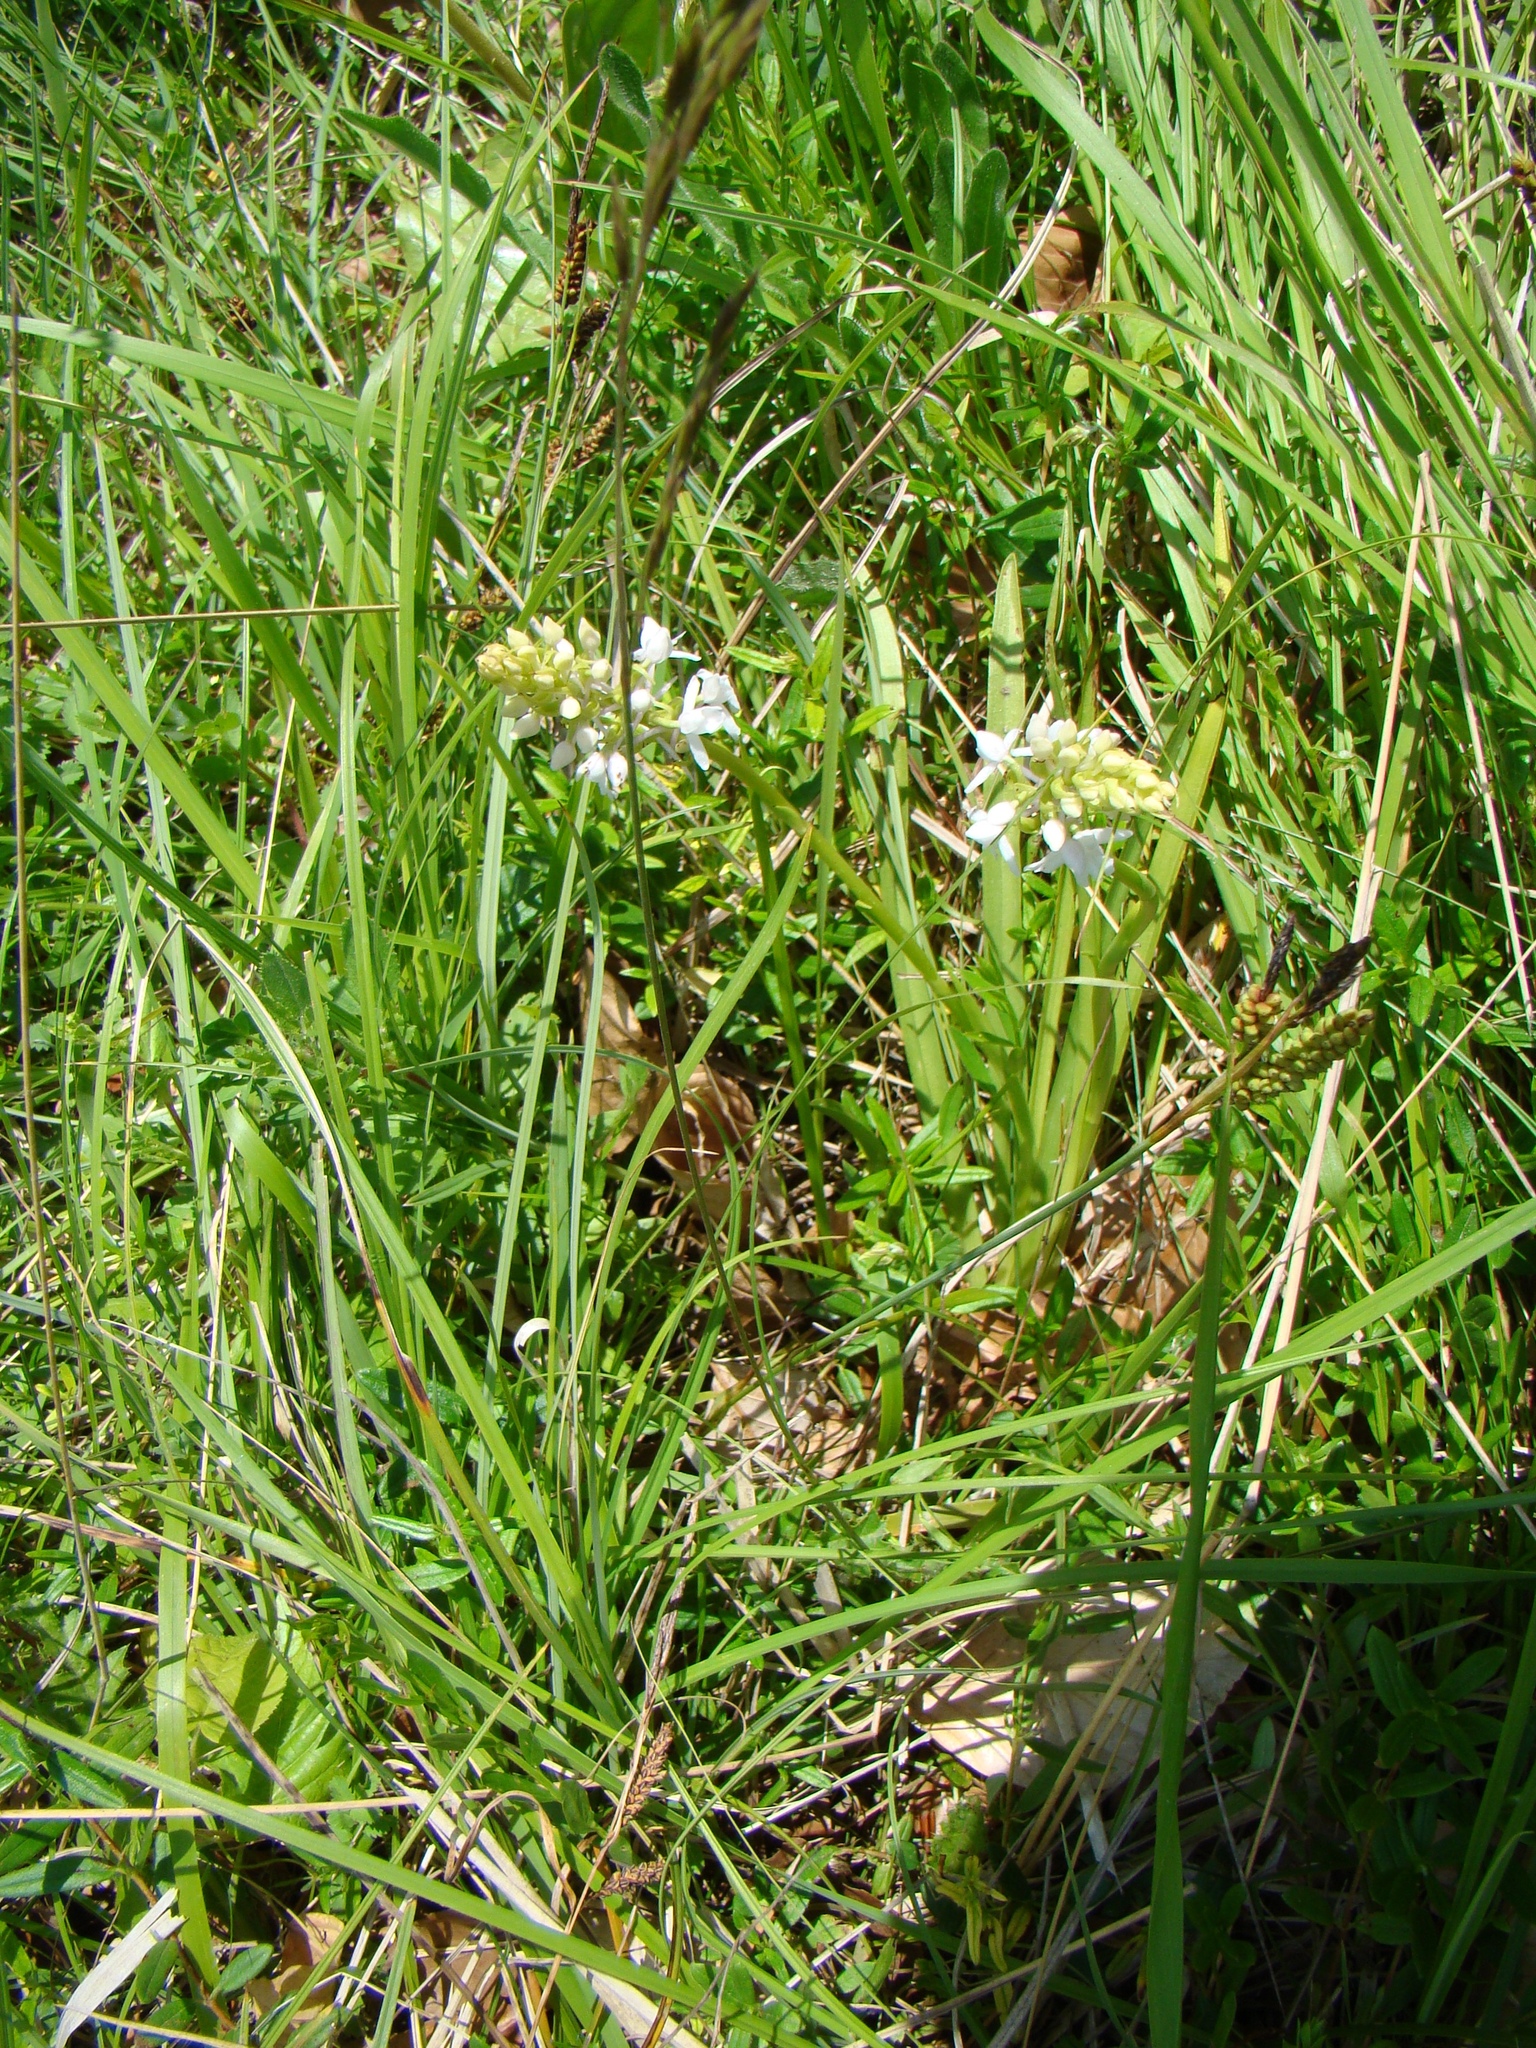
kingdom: Plantae
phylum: Tracheophyta
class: Liliopsida
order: Asparagales
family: Orchidaceae
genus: Gymnadenia
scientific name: Gymnadenia conopsea
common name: Fragrant orchid
